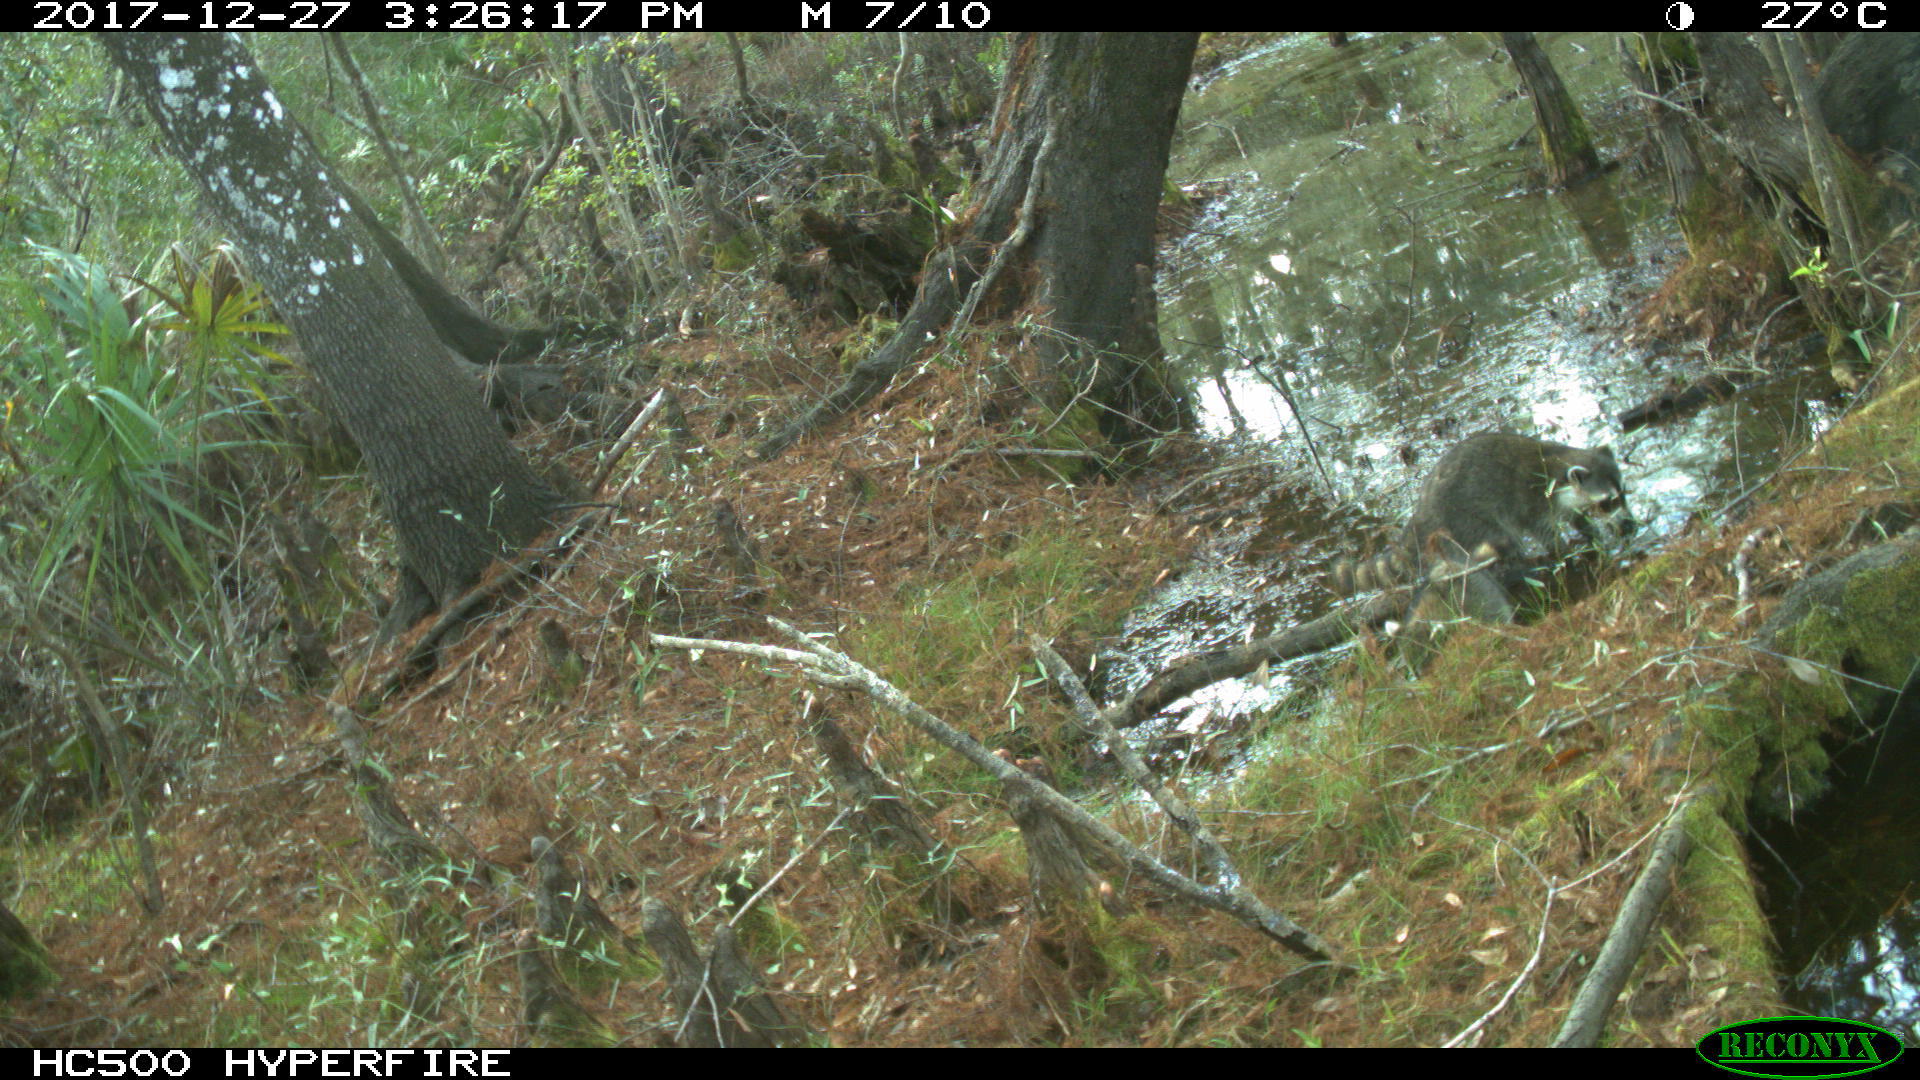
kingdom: Animalia
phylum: Chordata
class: Mammalia
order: Carnivora
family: Procyonidae
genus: Procyon
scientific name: Procyon lotor
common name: Raccoon
